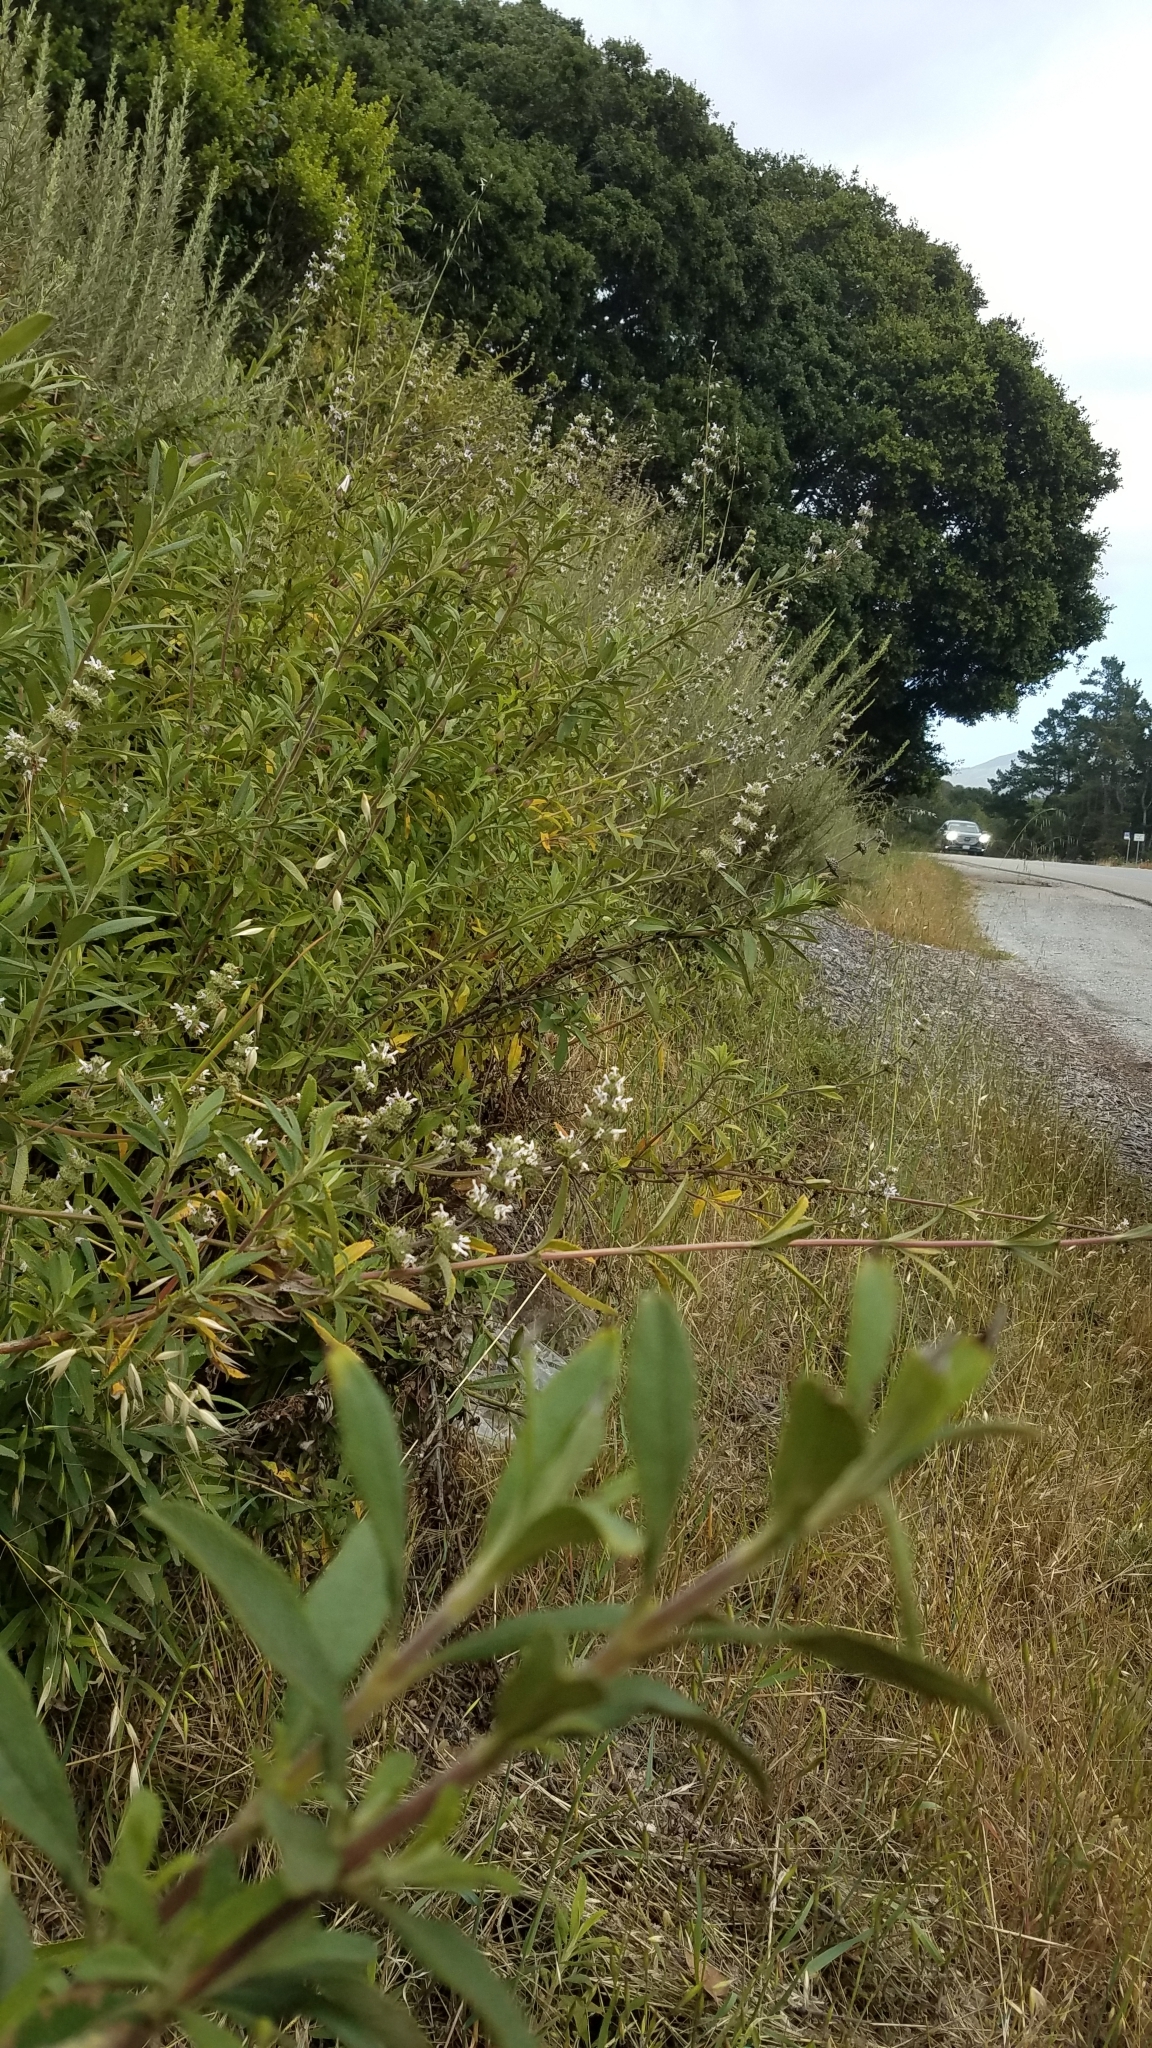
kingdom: Plantae
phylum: Tracheophyta
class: Magnoliopsida
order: Lamiales
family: Lamiaceae
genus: Salvia
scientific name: Salvia mellifera
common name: Black sage
